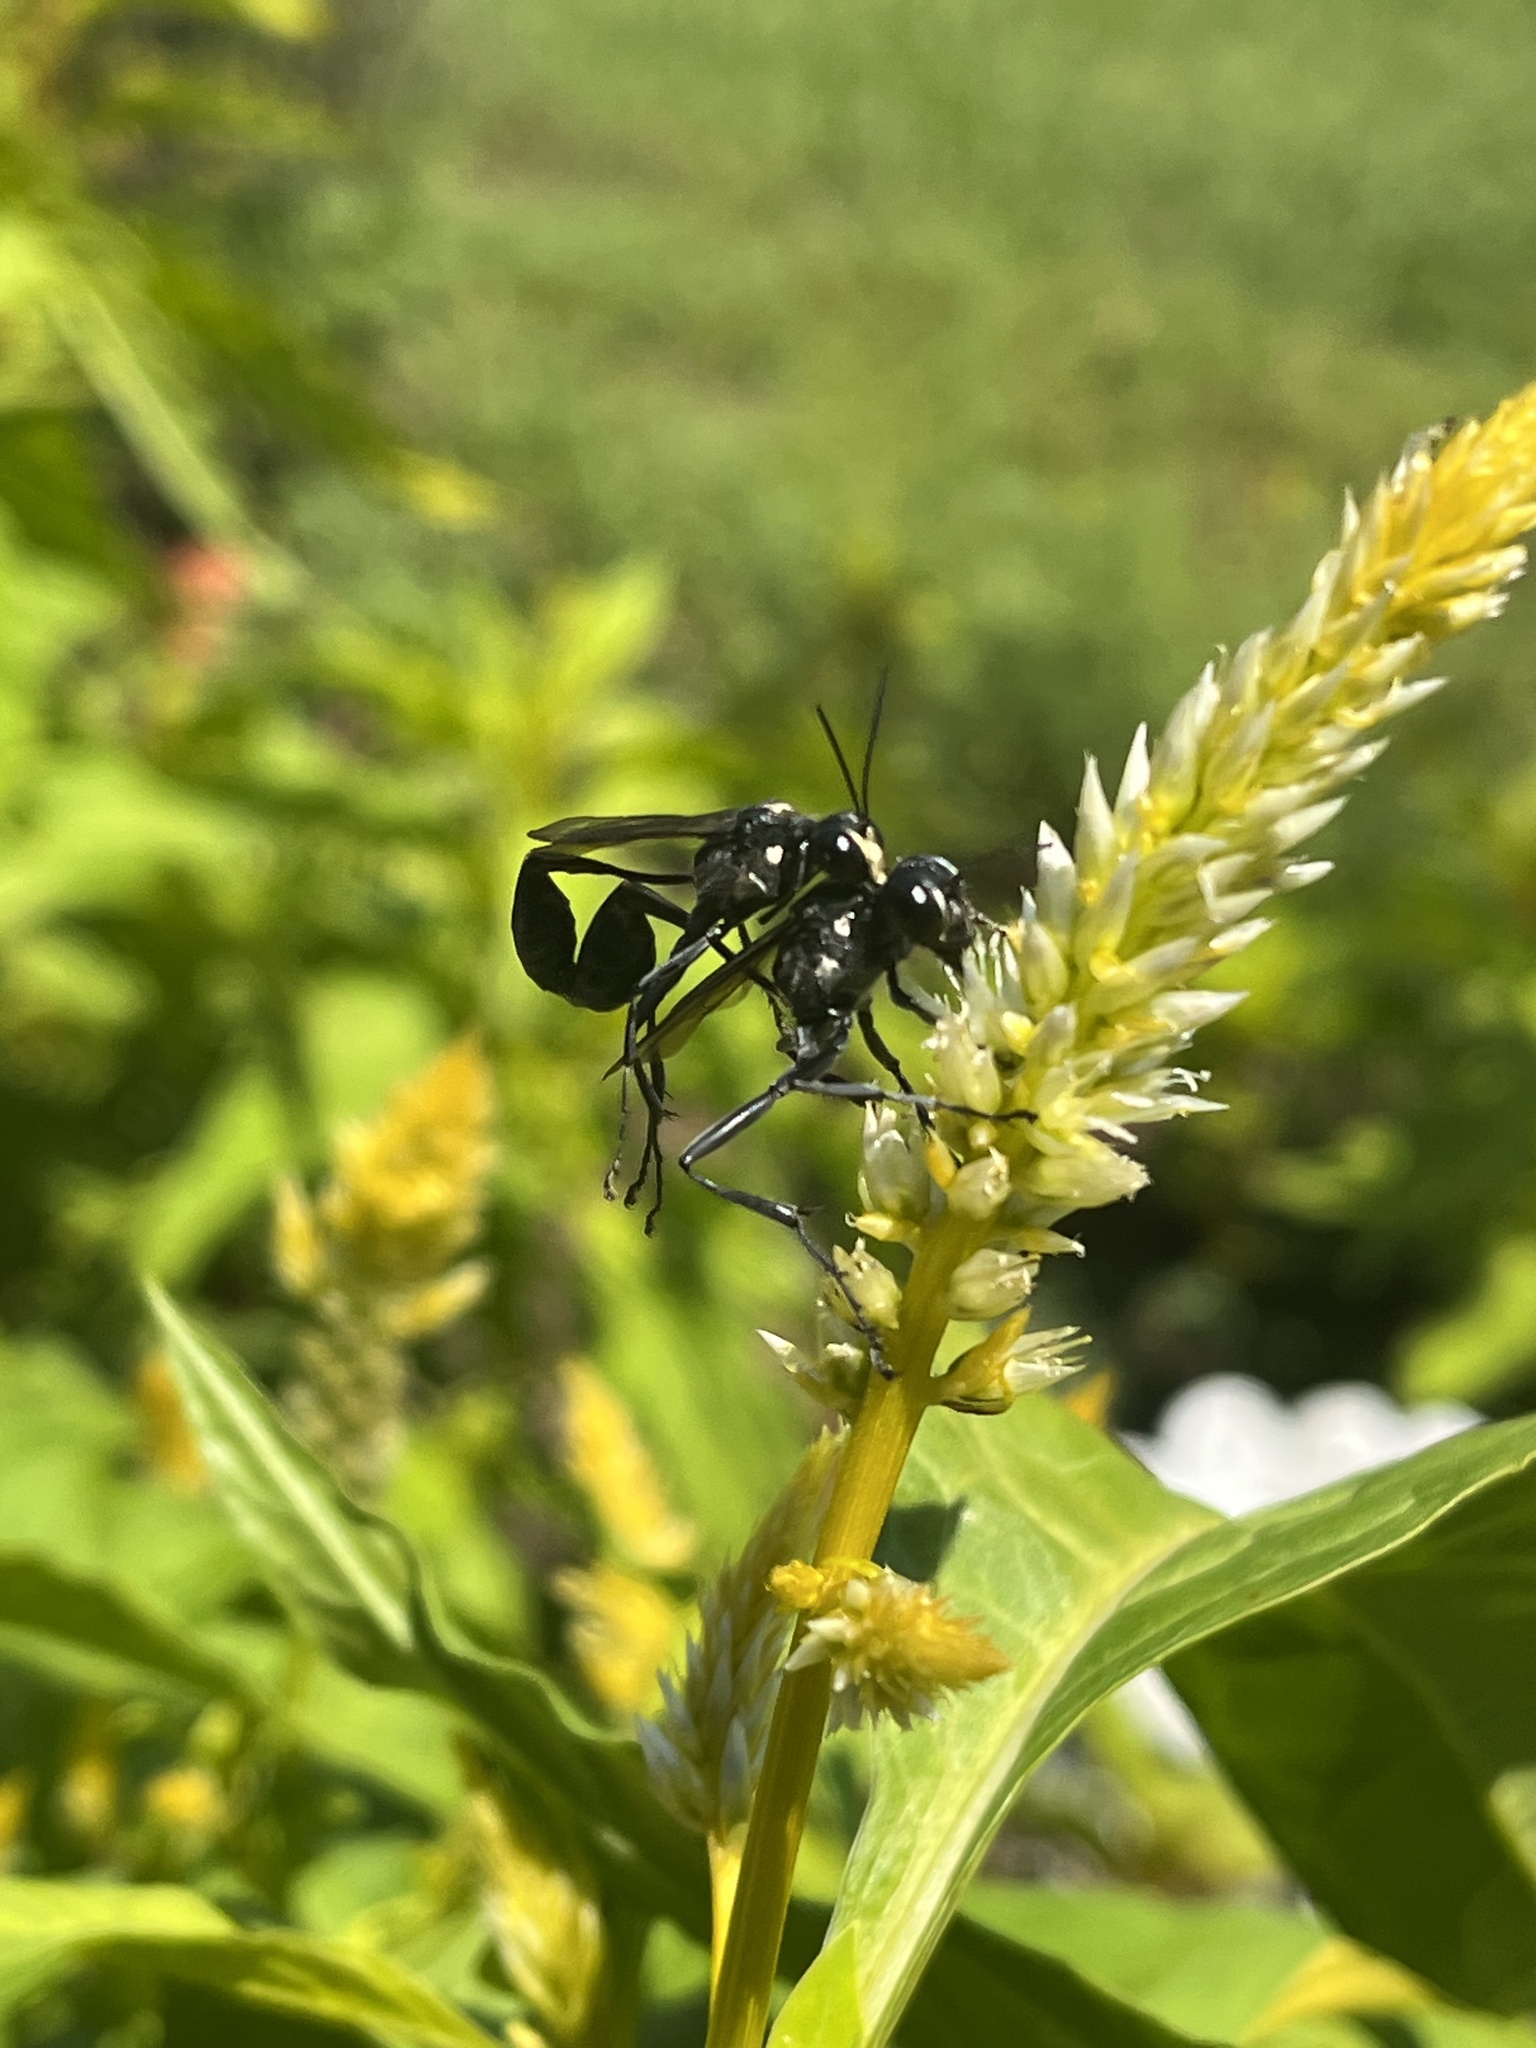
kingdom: Animalia
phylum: Arthropoda
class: Insecta
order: Hymenoptera
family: Sphecidae
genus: Eremnophila
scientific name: Eremnophila aureonotata
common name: Gold-marked thread-waisted wasp
